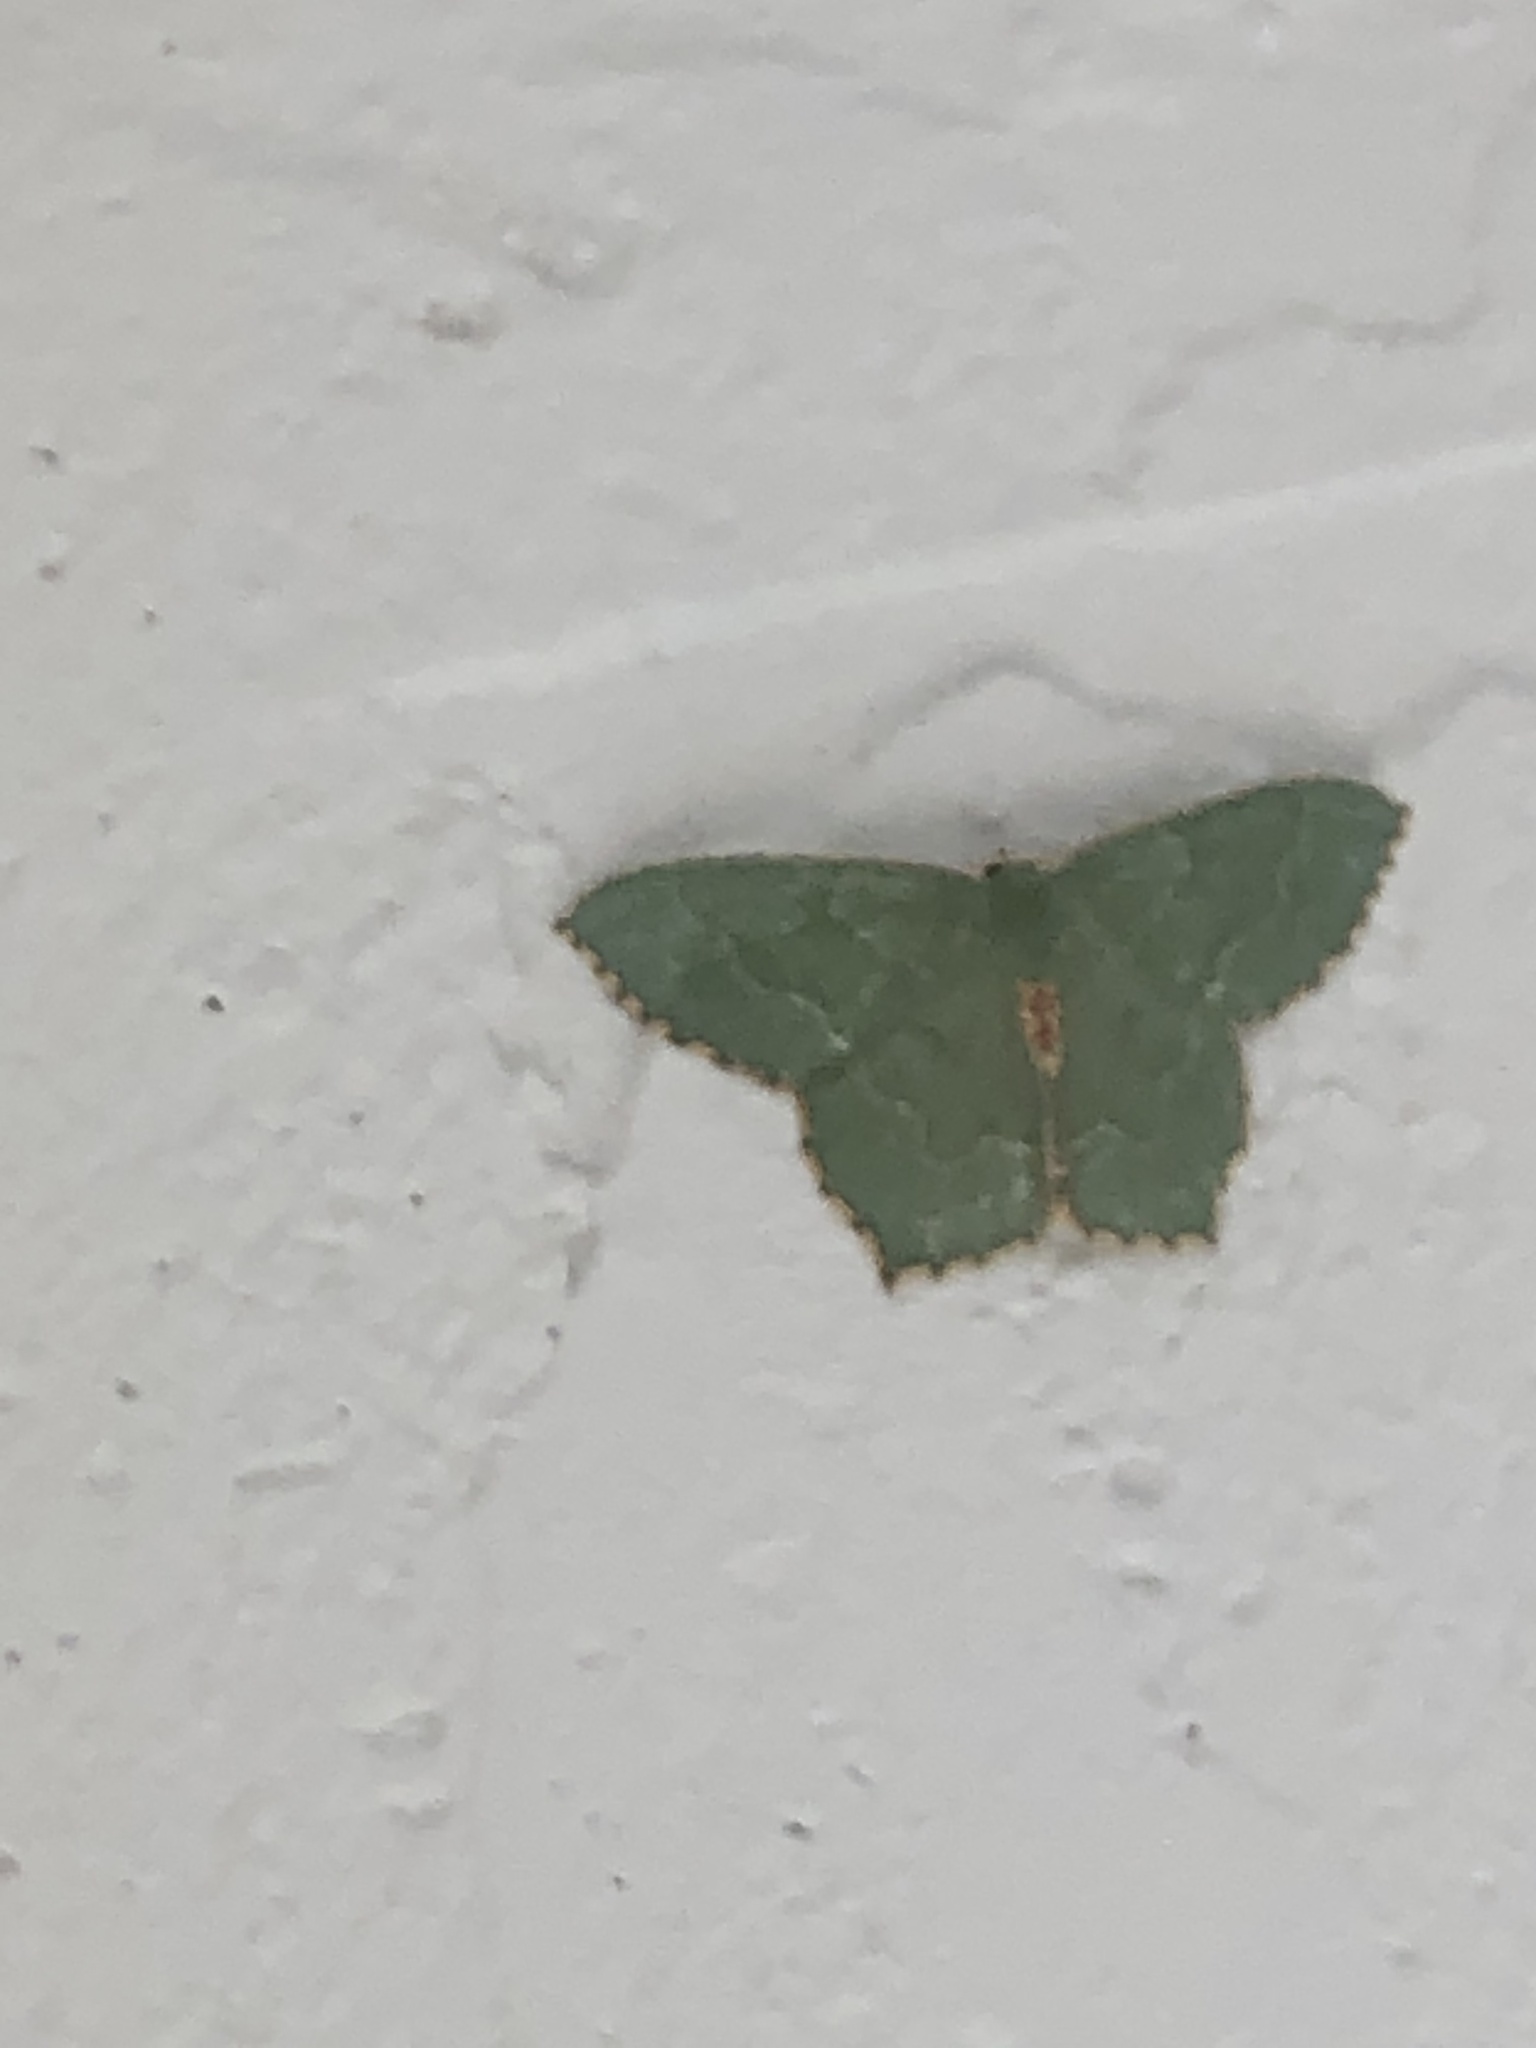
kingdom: Animalia
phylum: Arthropoda
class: Insecta
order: Lepidoptera
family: Geometridae
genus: Hemithea
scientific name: Hemithea aestivaria
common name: Common emerald
